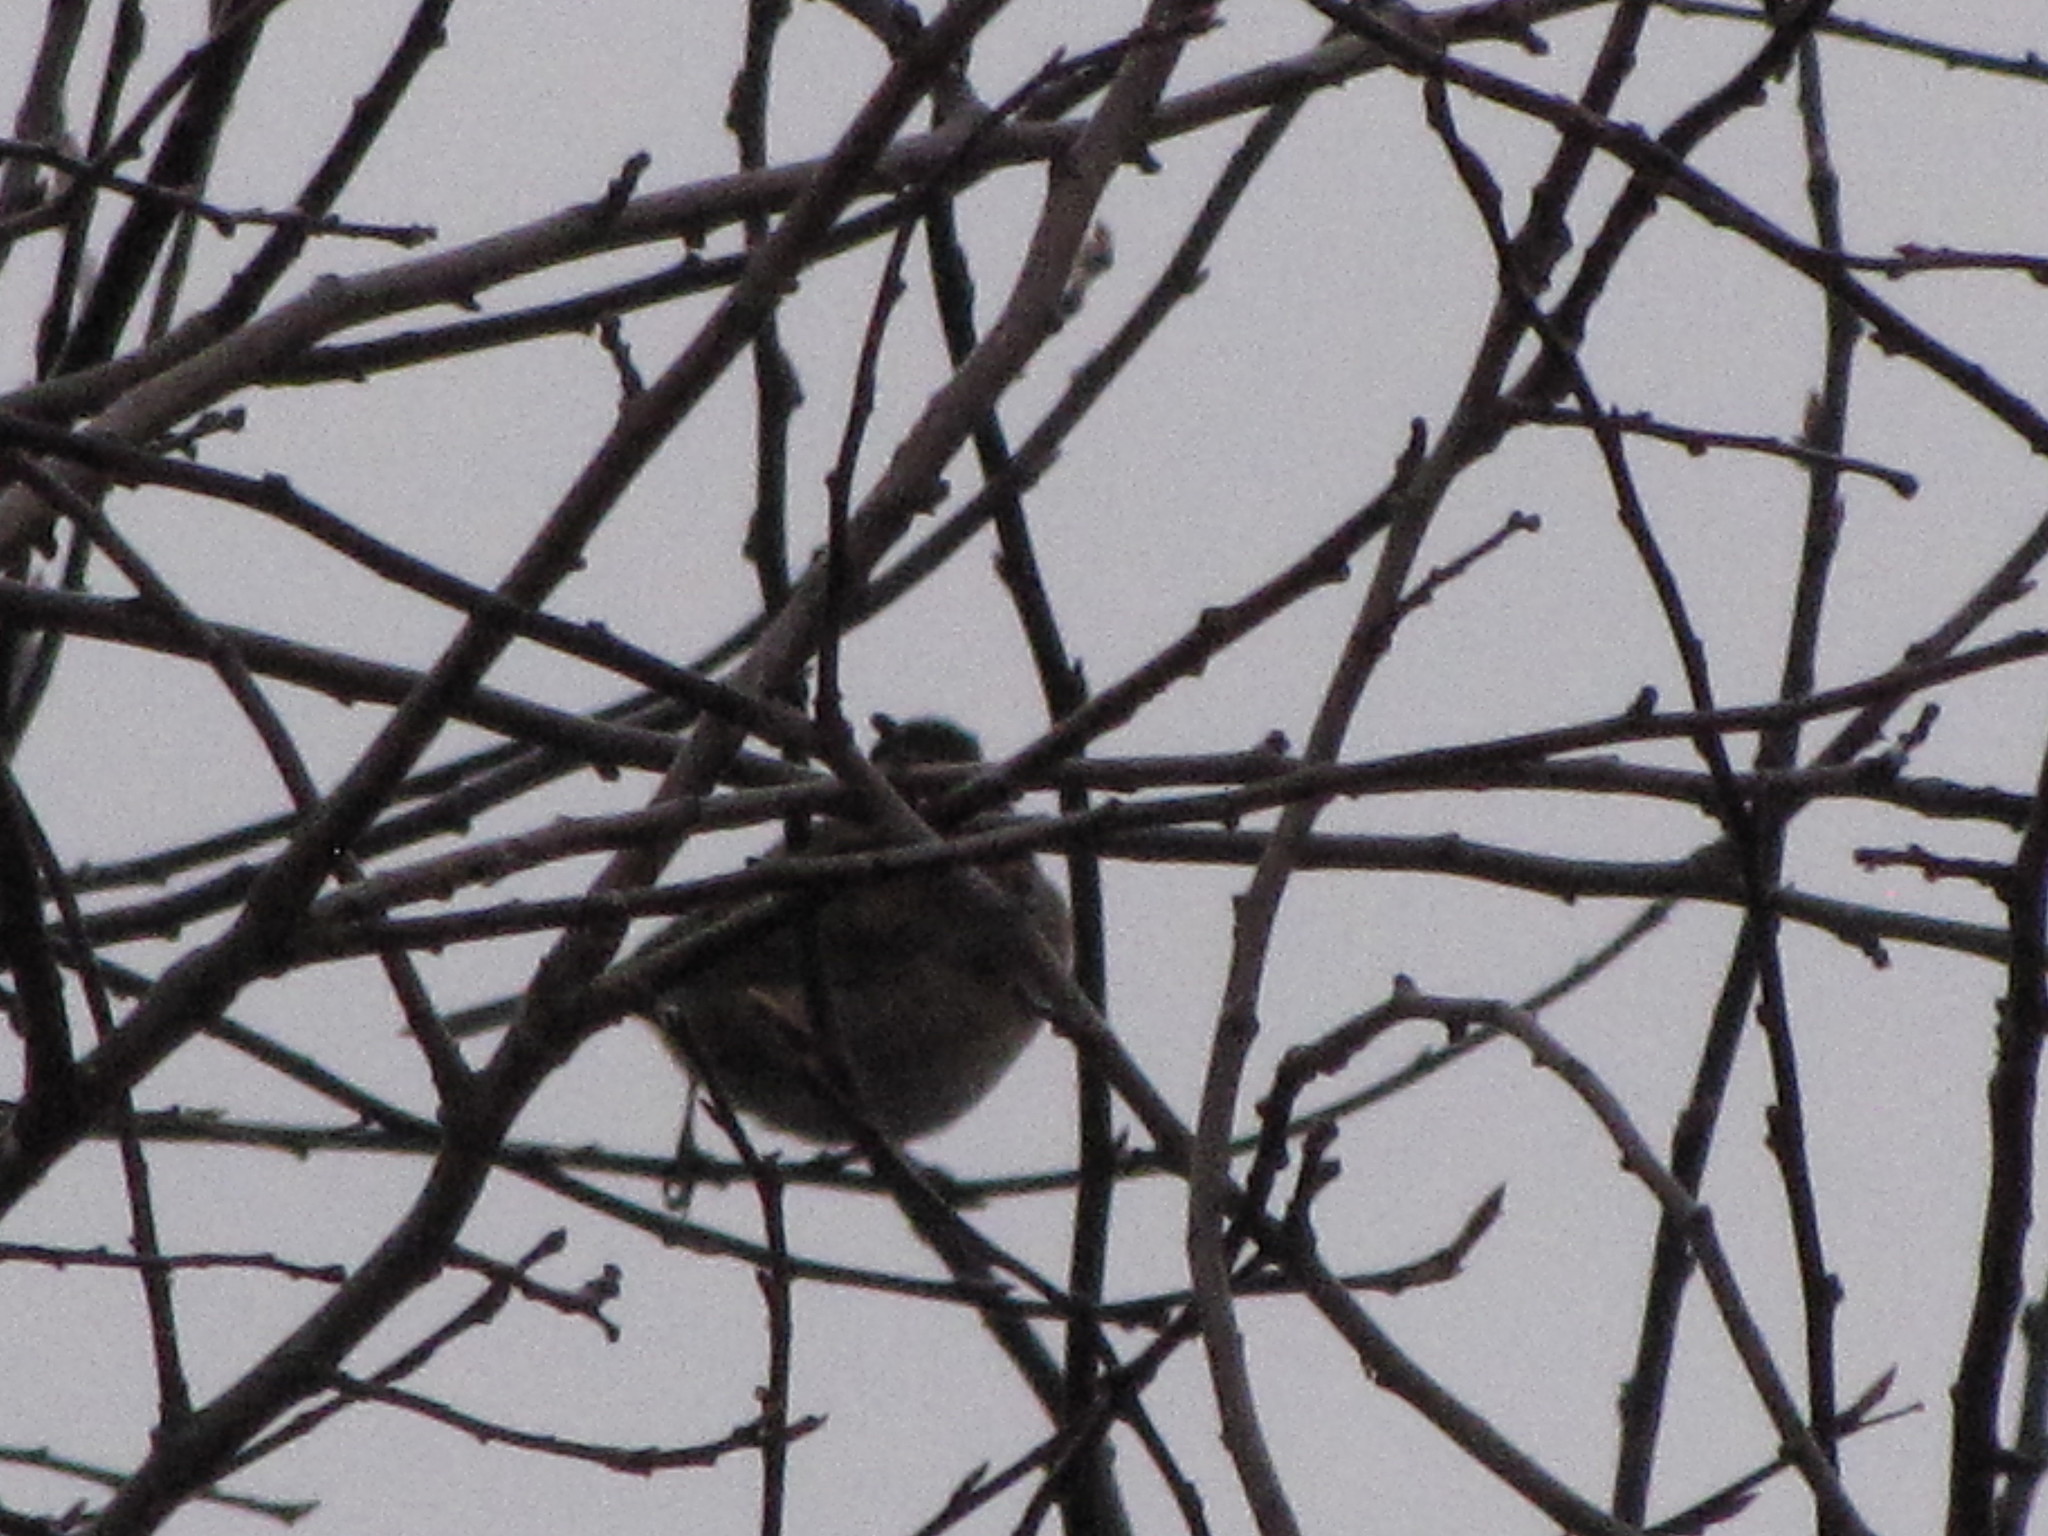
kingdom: Animalia
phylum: Chordata
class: Aves
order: Passeriformes
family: Passerellidae
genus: Junco
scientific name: Junco hyemalis
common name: Dark-eyed junco
